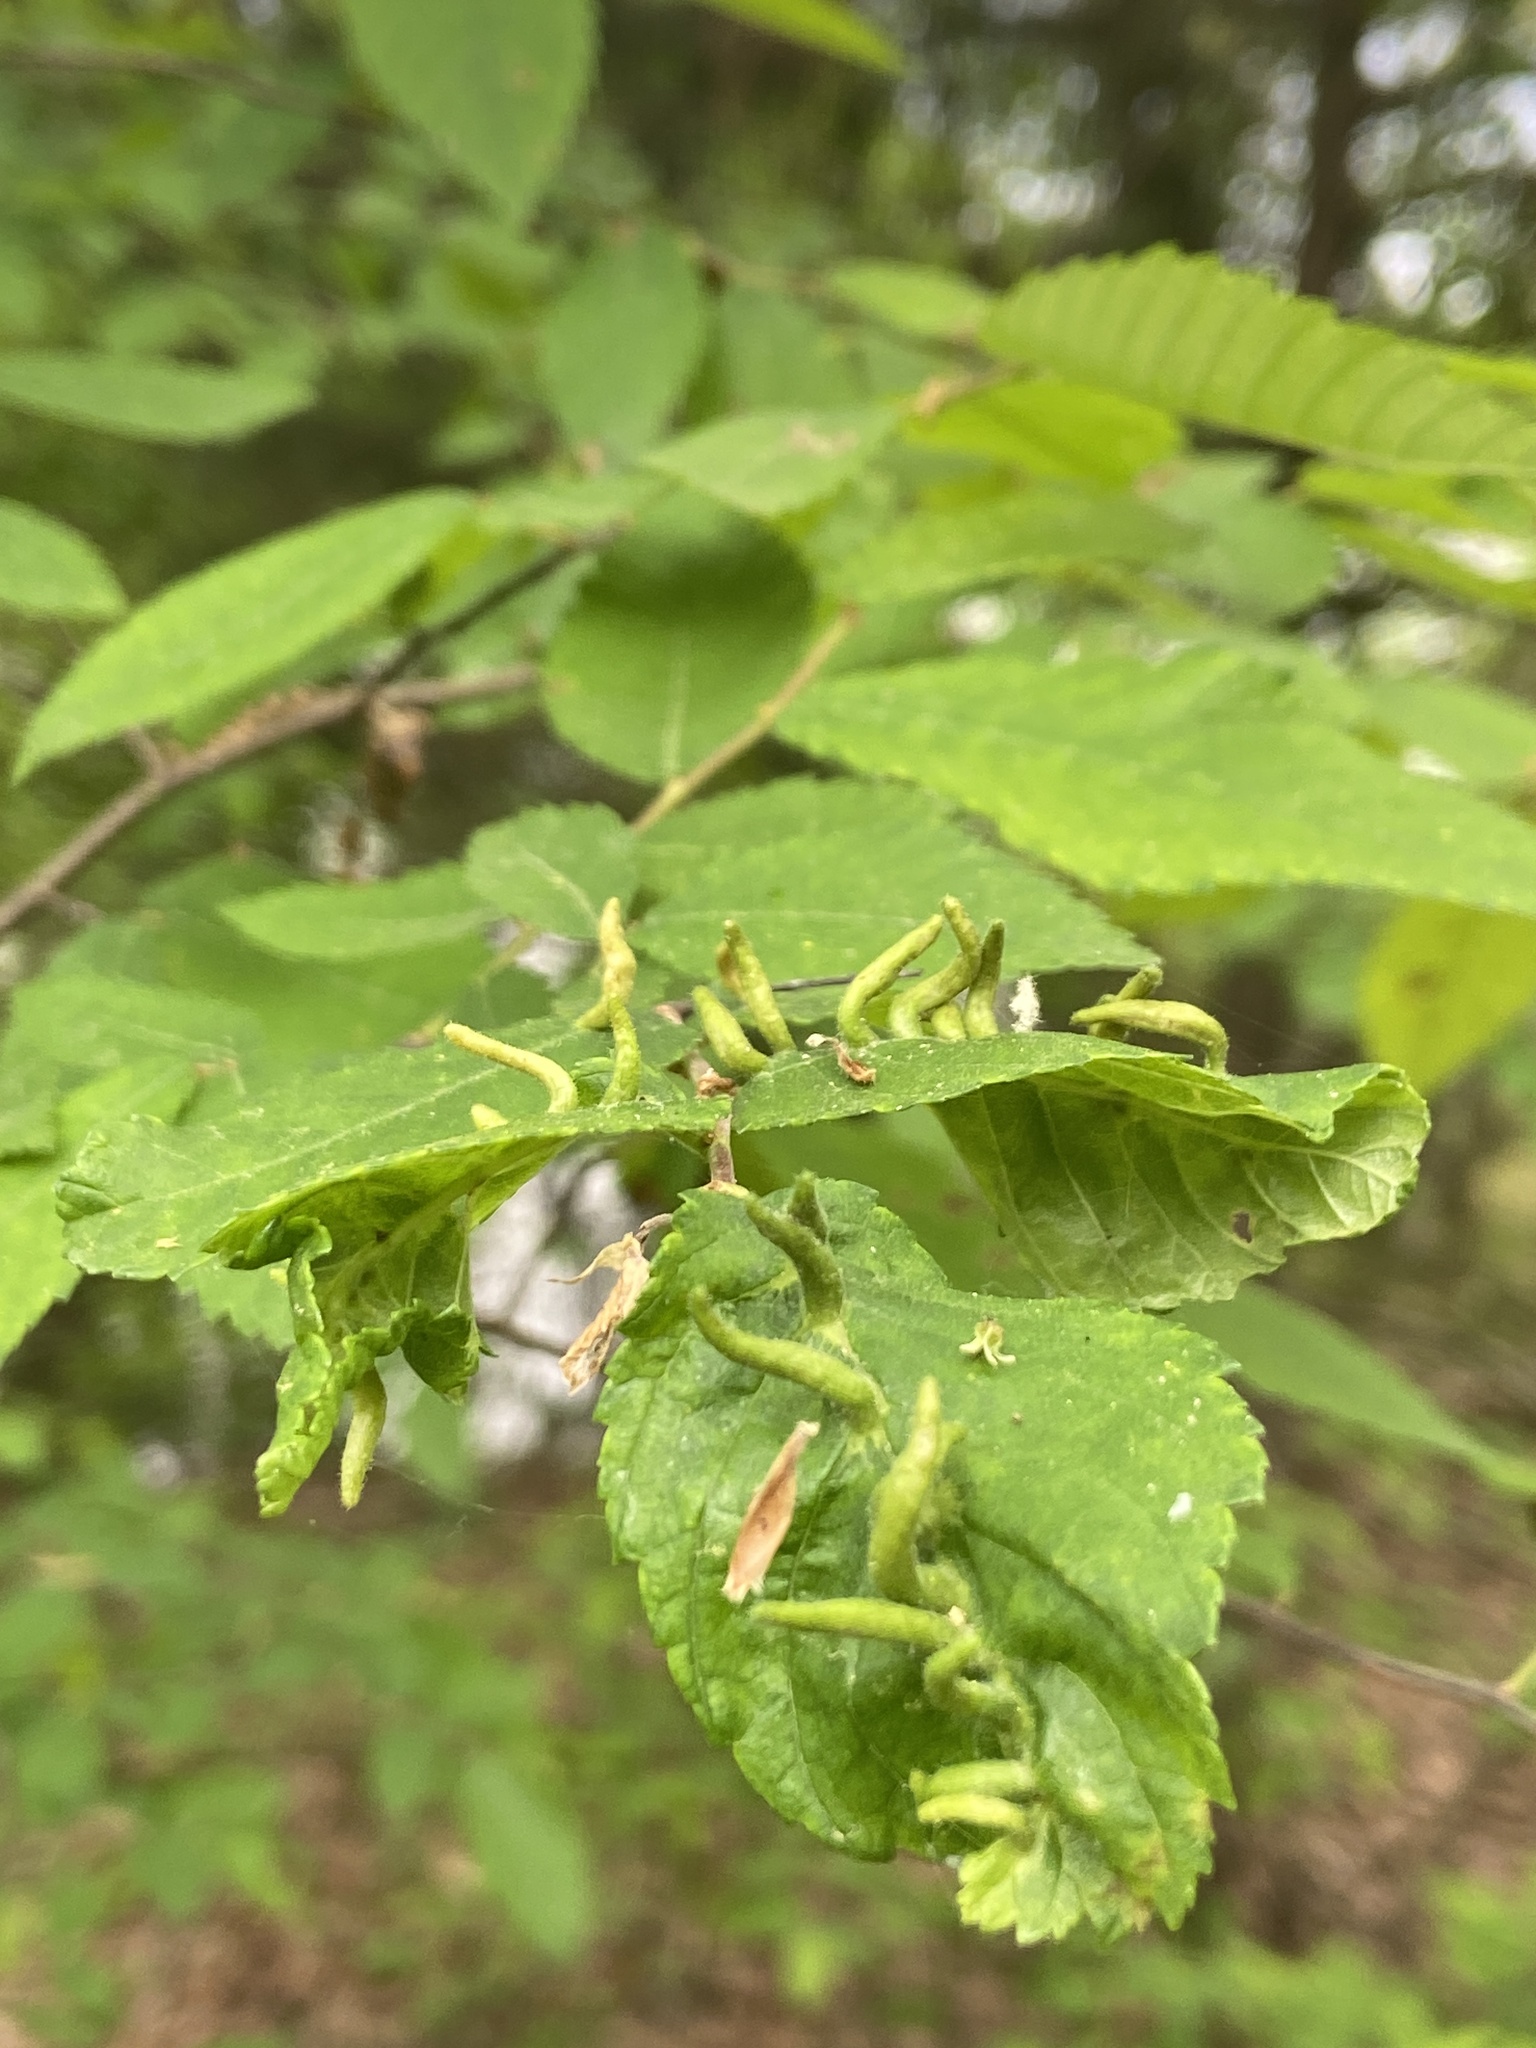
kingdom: Animalia
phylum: Arthropoda
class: Arachnida
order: Trombidiformes
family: Eriophyidae
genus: Aceria
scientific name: Aceria
